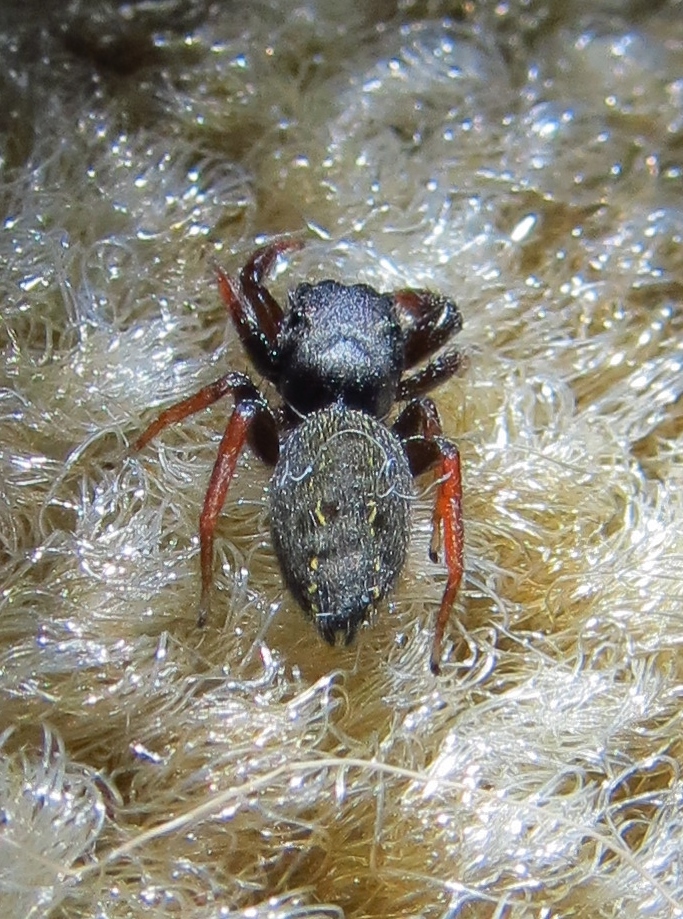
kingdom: Animalia
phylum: Arthropoda
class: Arachnida
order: Araneae
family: Salticidae
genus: Metacyrba
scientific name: Metacyrba taeniola
